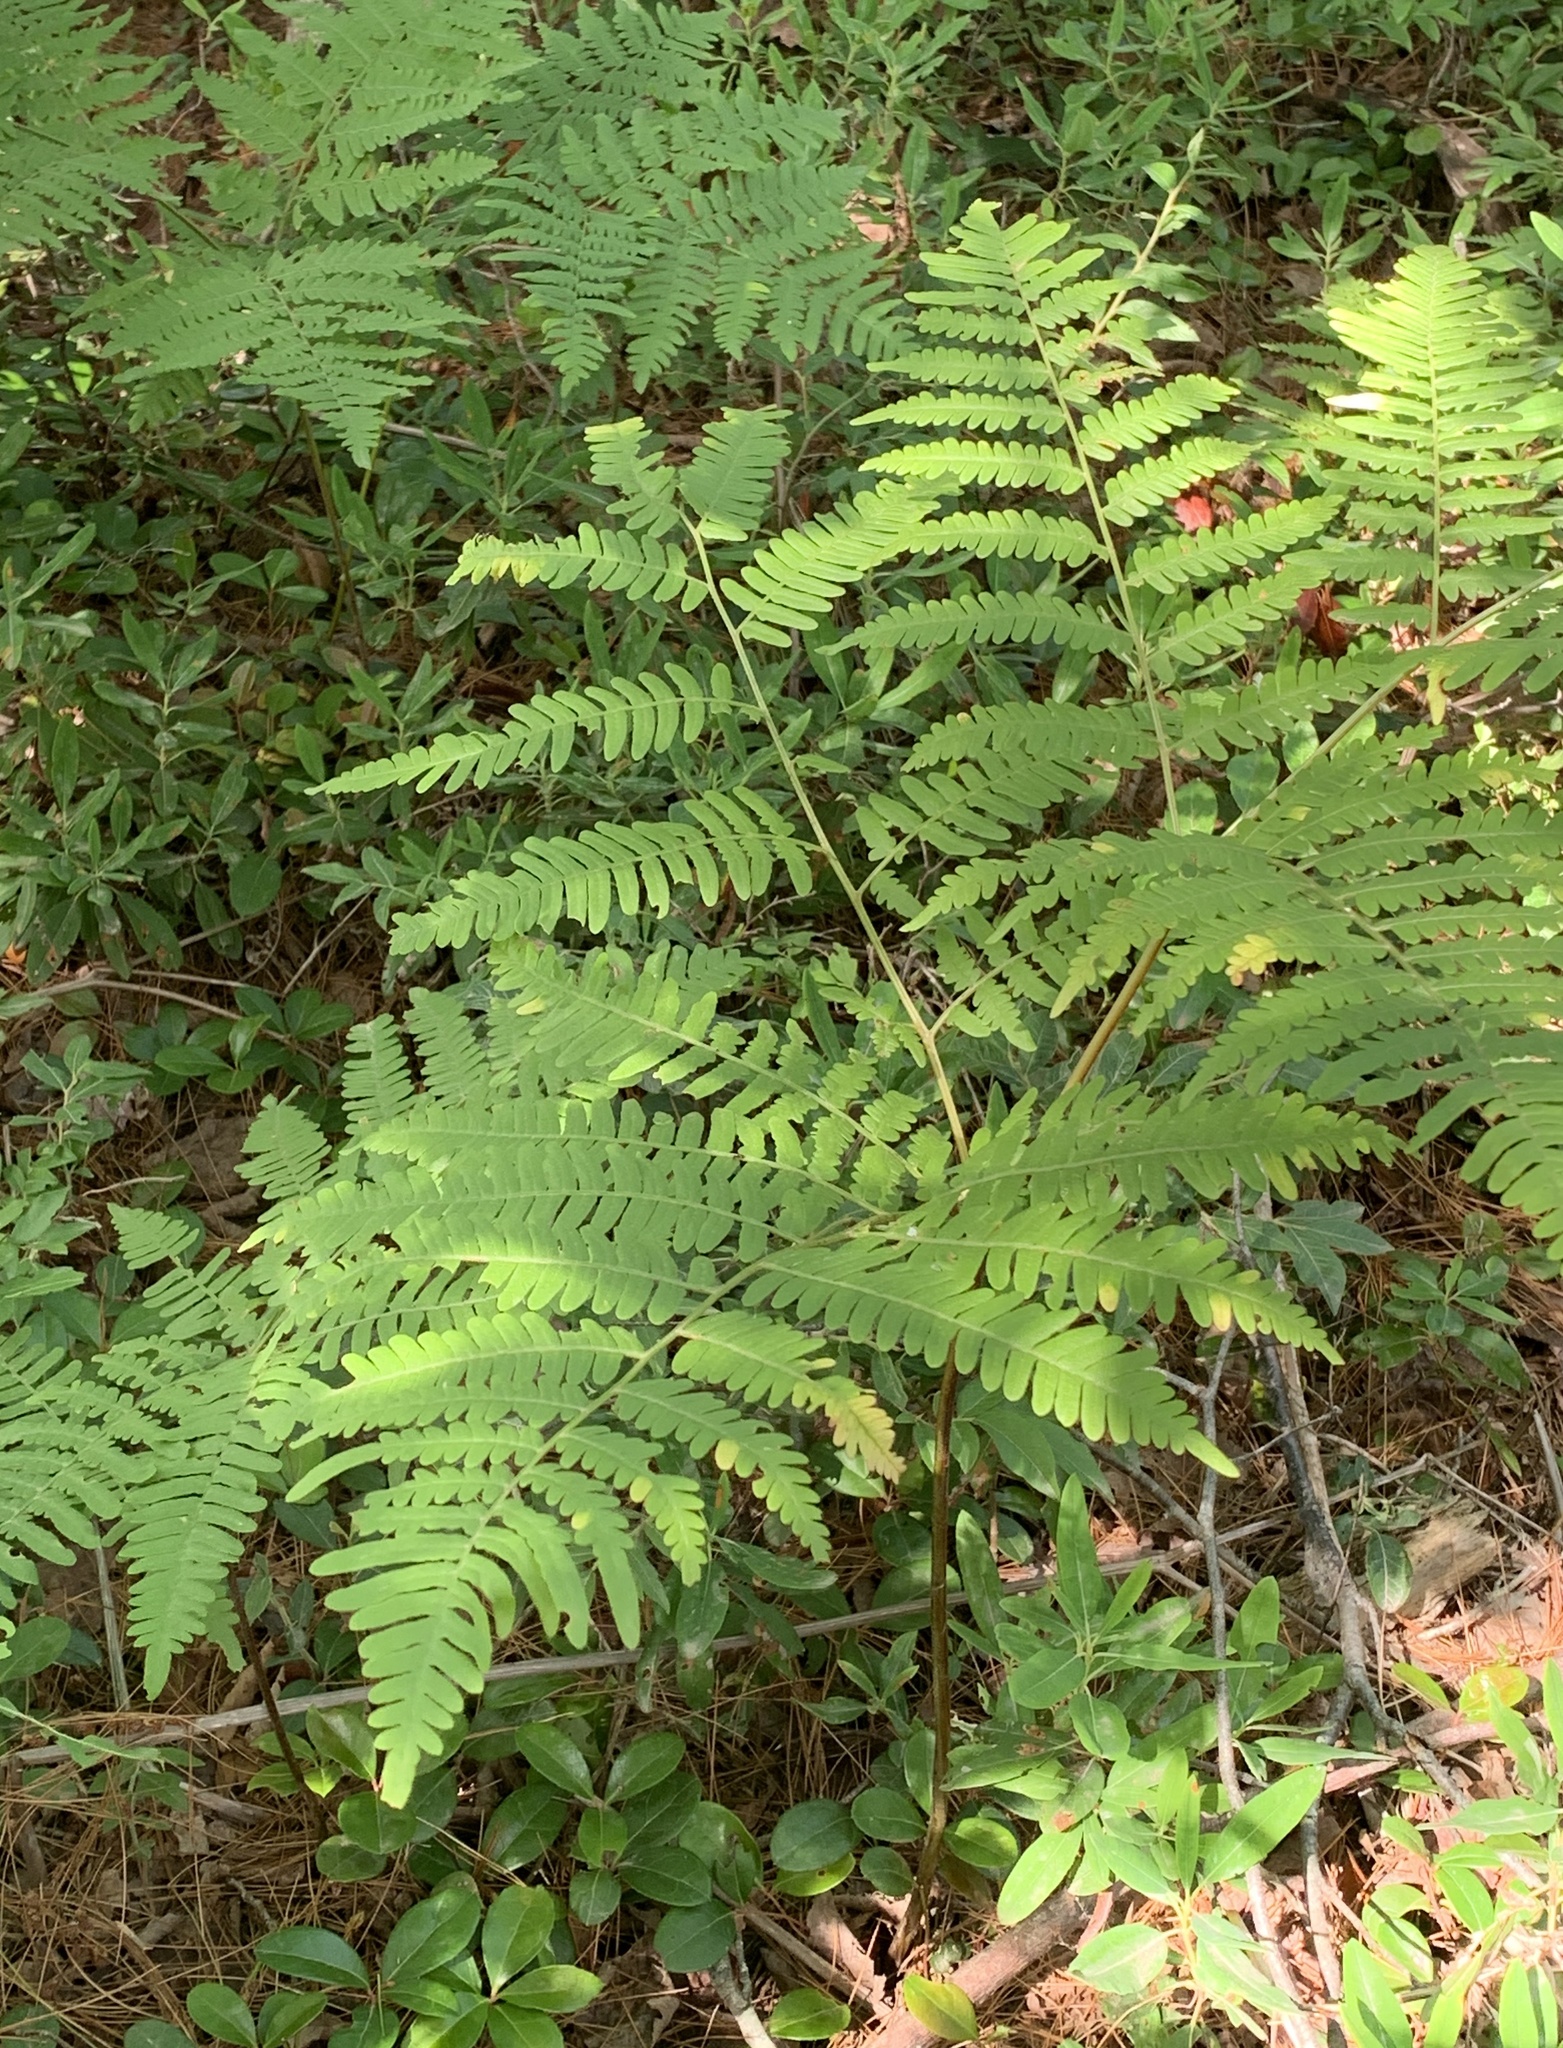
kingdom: Plantae
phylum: Tracheophyta
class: Polypodiopsida
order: Polypodiales
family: Dennstaedtiaceae
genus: Pteridium
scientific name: Pteridium aquilinum
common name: Bracken
